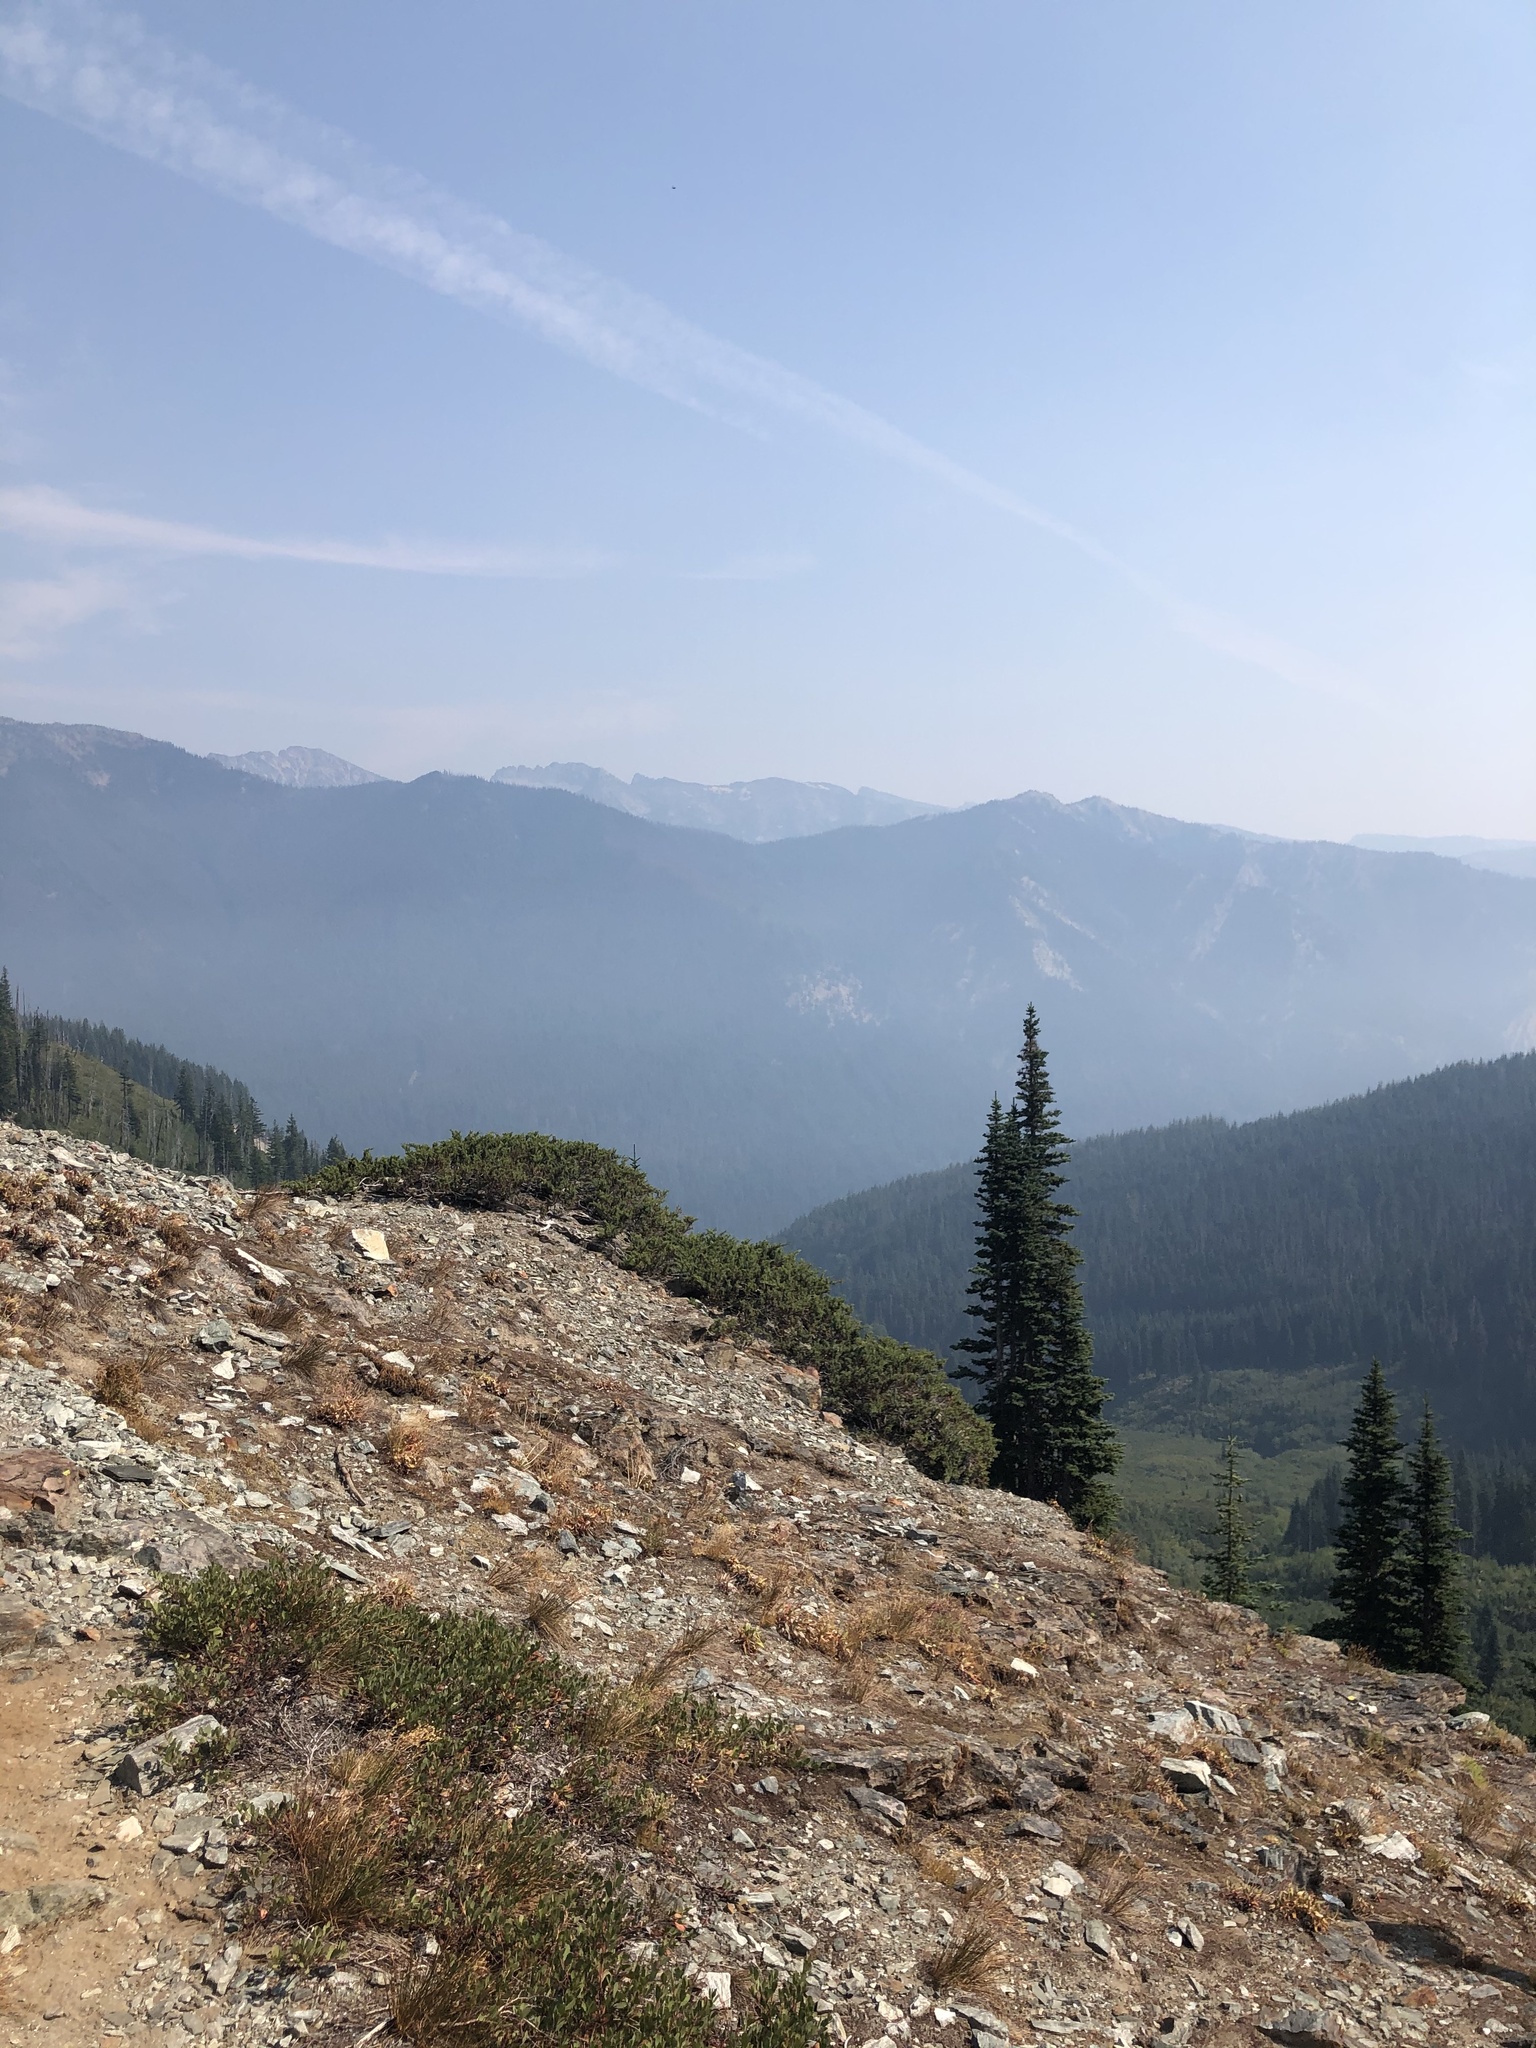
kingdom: Plantae
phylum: Tracheophyta
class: Pinopsida
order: Pinales
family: Pinaceae
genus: Abies
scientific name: Abies lasiocarpa
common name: Subalpine fir
